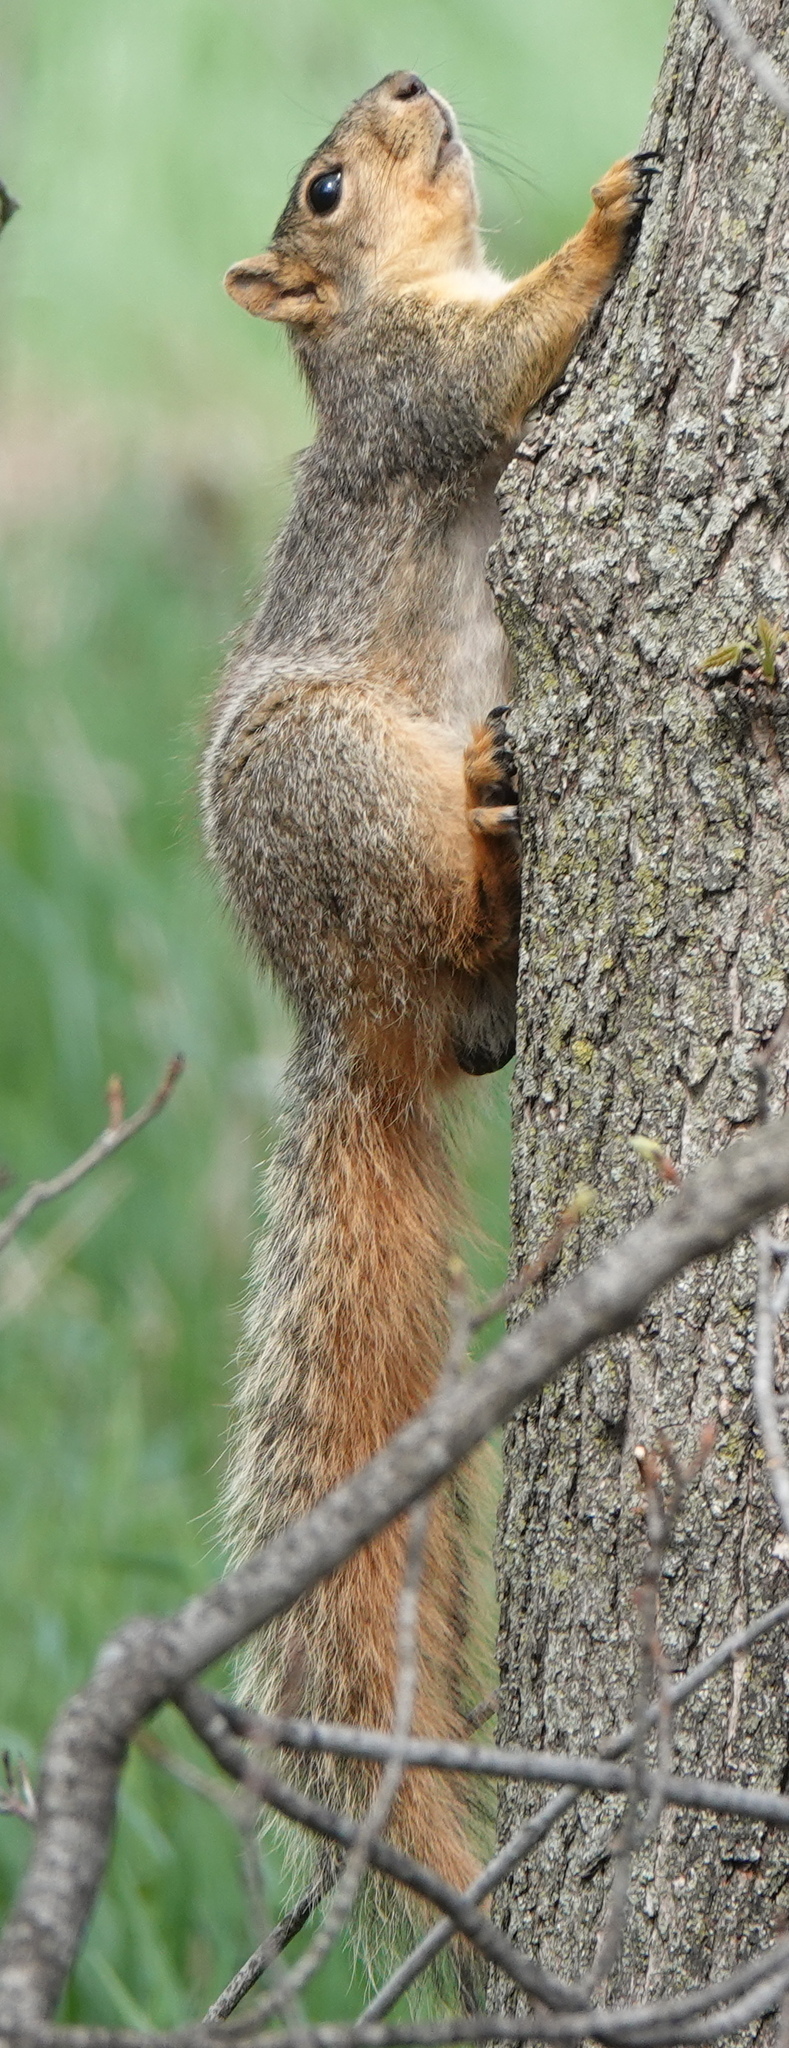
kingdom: Animalia
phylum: Chordata
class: Mammalia
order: Rodentia
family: Sciuridae
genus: Sciurus
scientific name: Sciurus niger
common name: Fox squirrel
